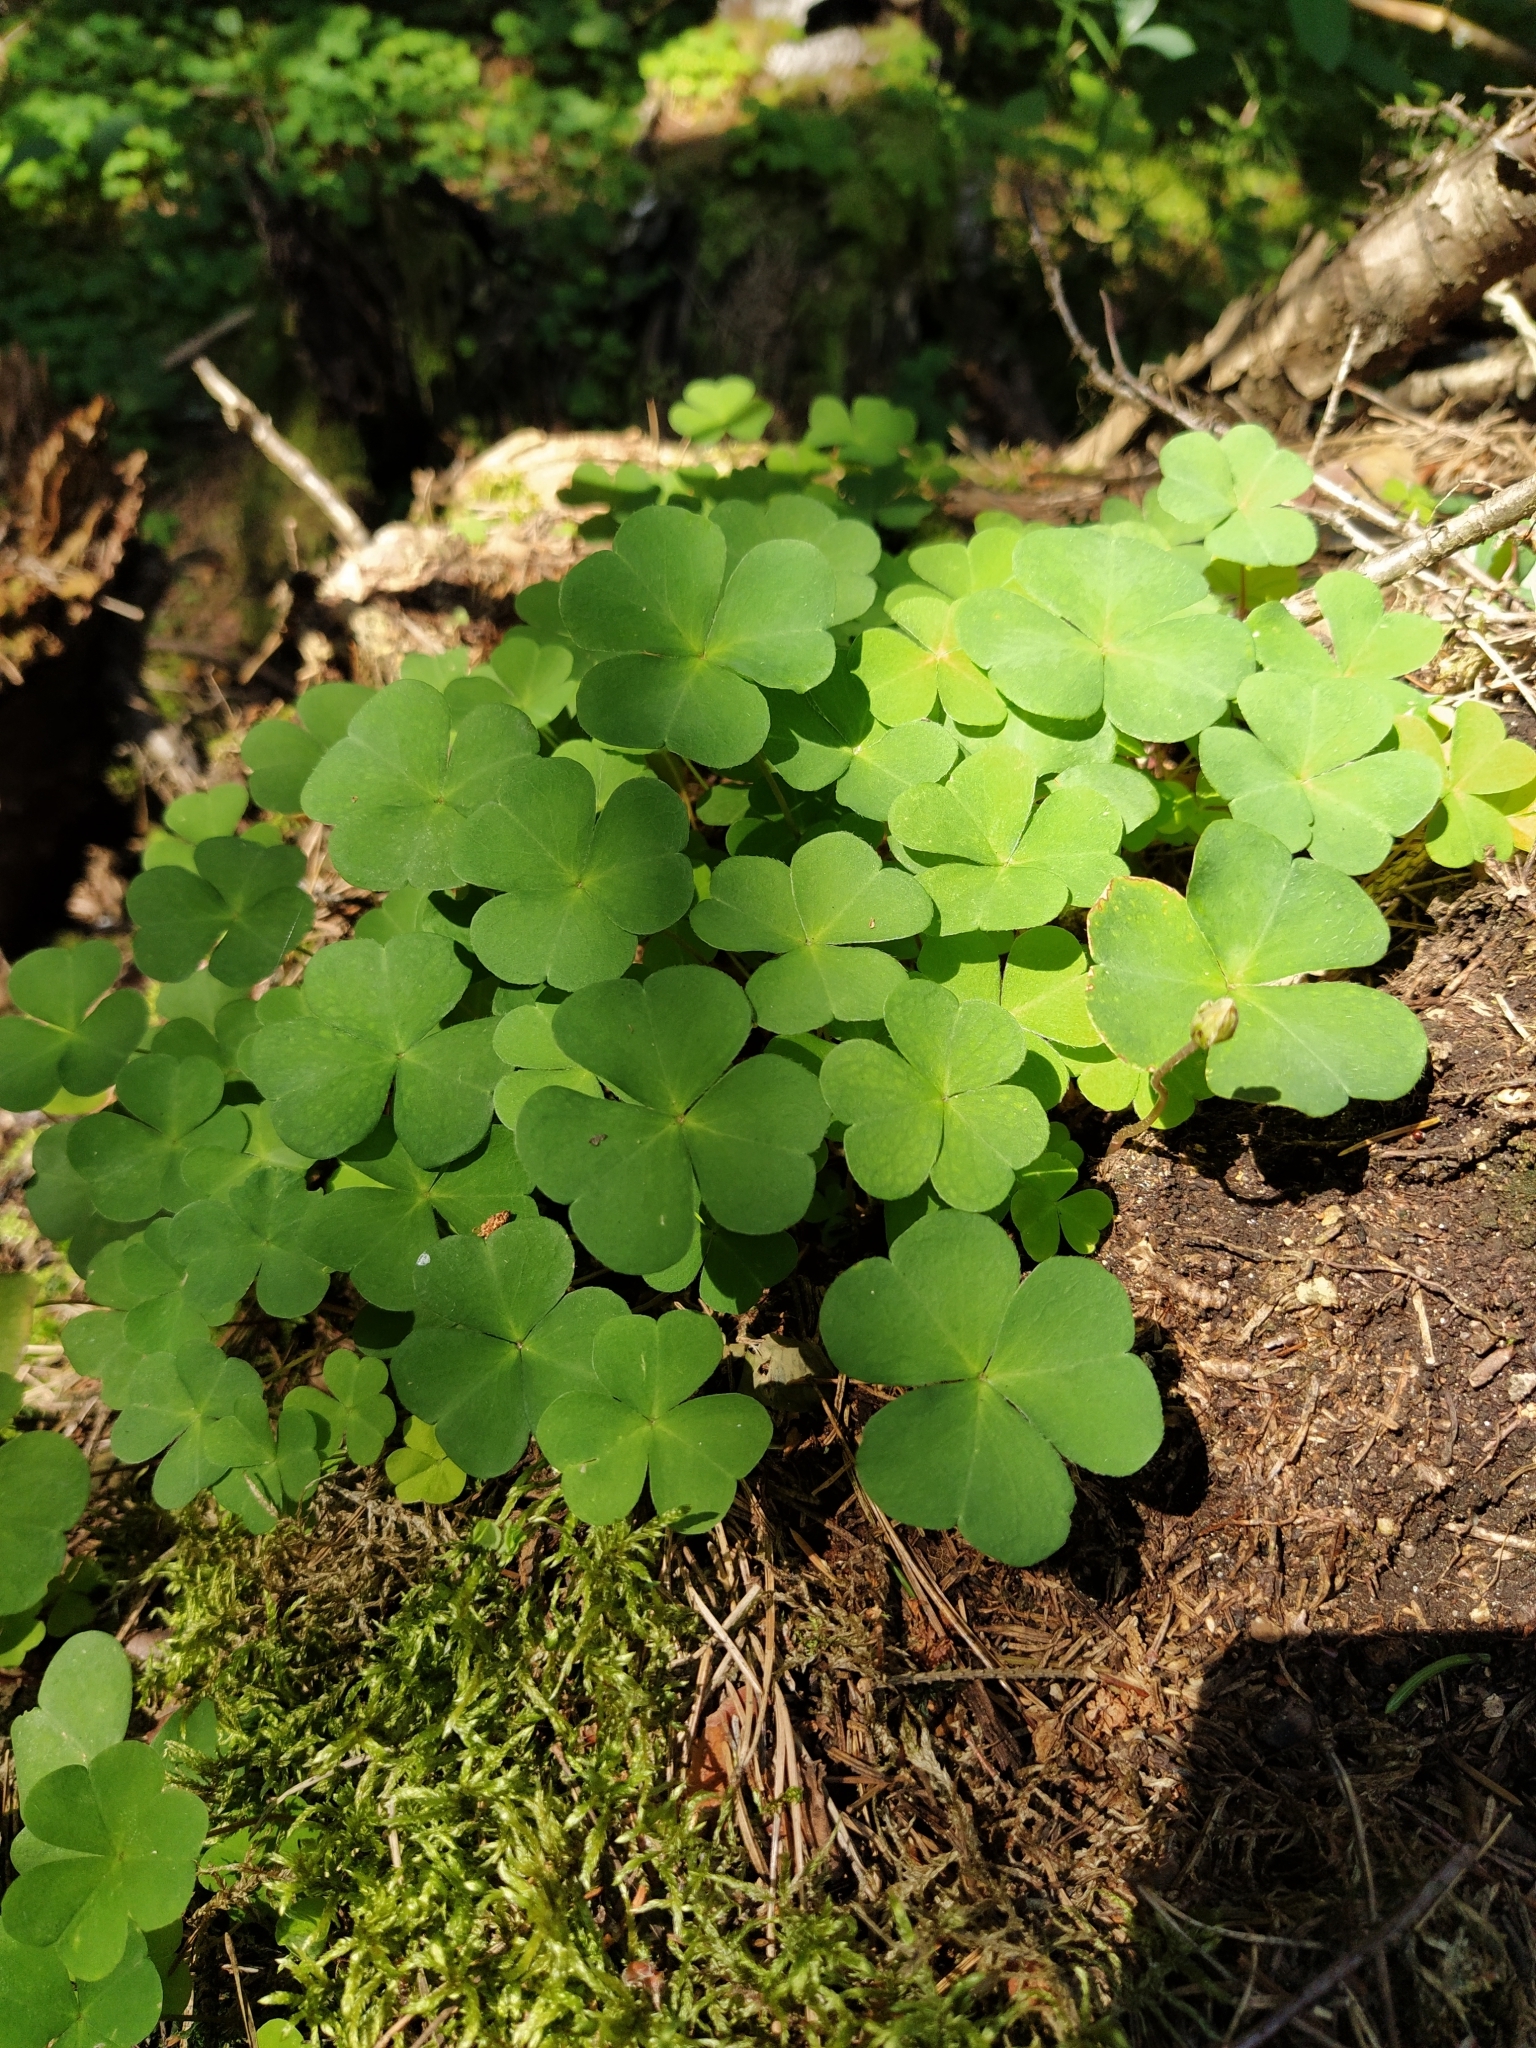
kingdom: Plantae
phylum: Tracheophyta
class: Magnoliopsida
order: Oxalidales
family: Oxalidaceae
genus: Oxalis
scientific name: Oxalis acetosella
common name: Wood-sorrel
